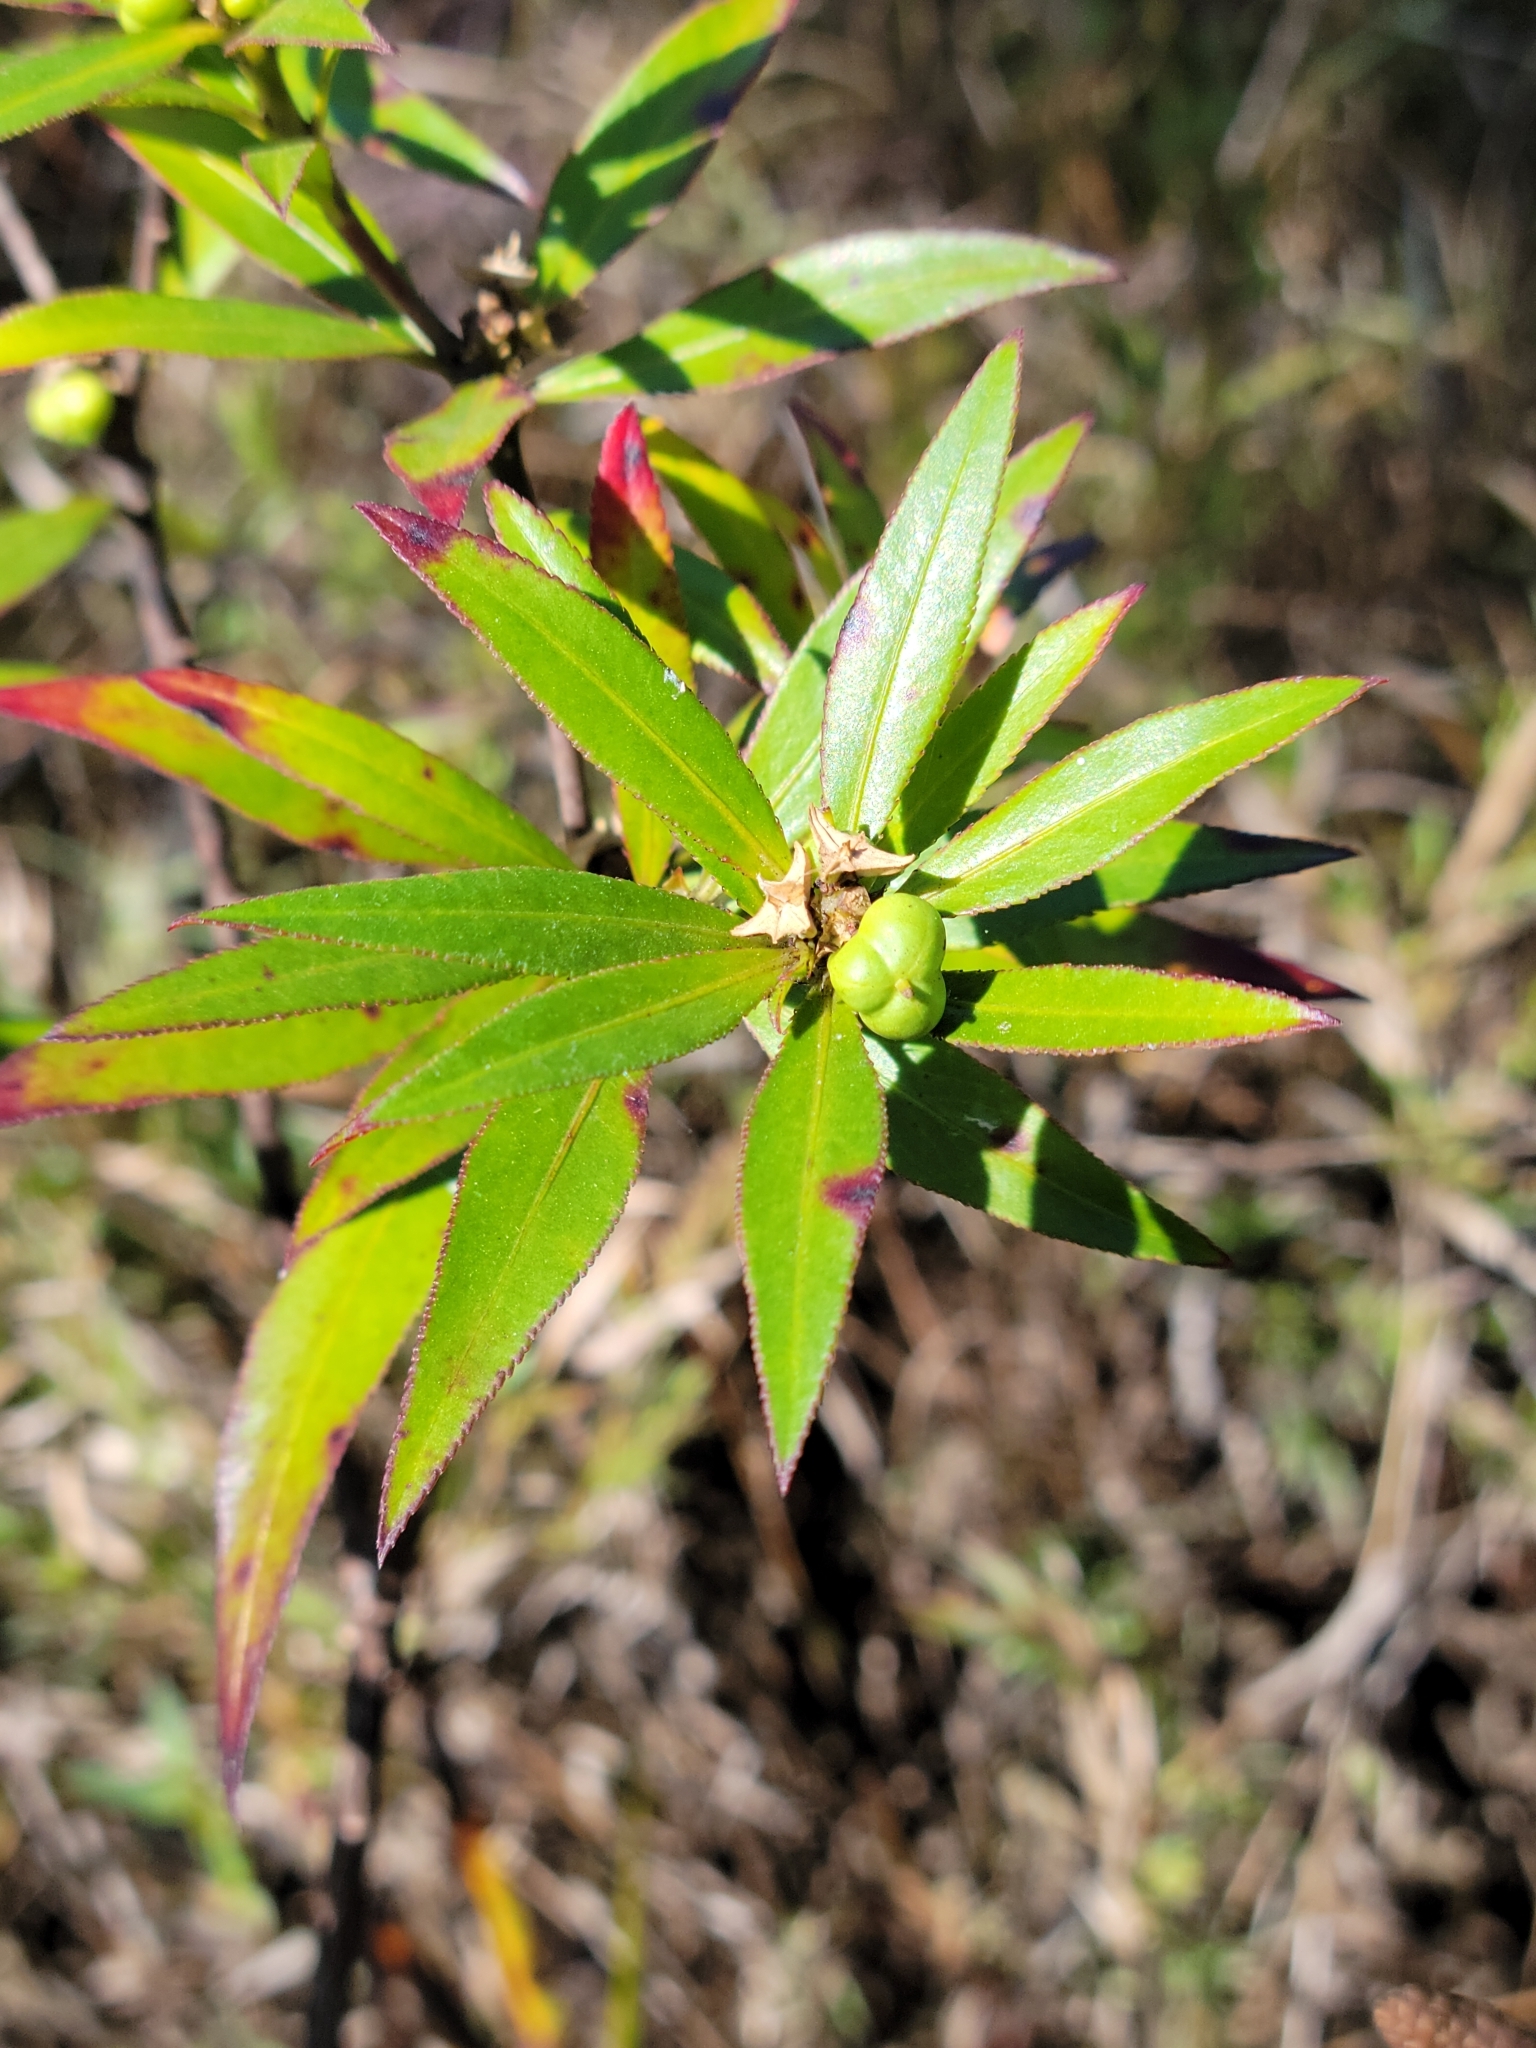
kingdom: Plantae
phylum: Tracheophyta
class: Magnoliopsida
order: Malpighiales
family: Euphorbiaceae
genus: Stillingia
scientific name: Stillingia aquatica
